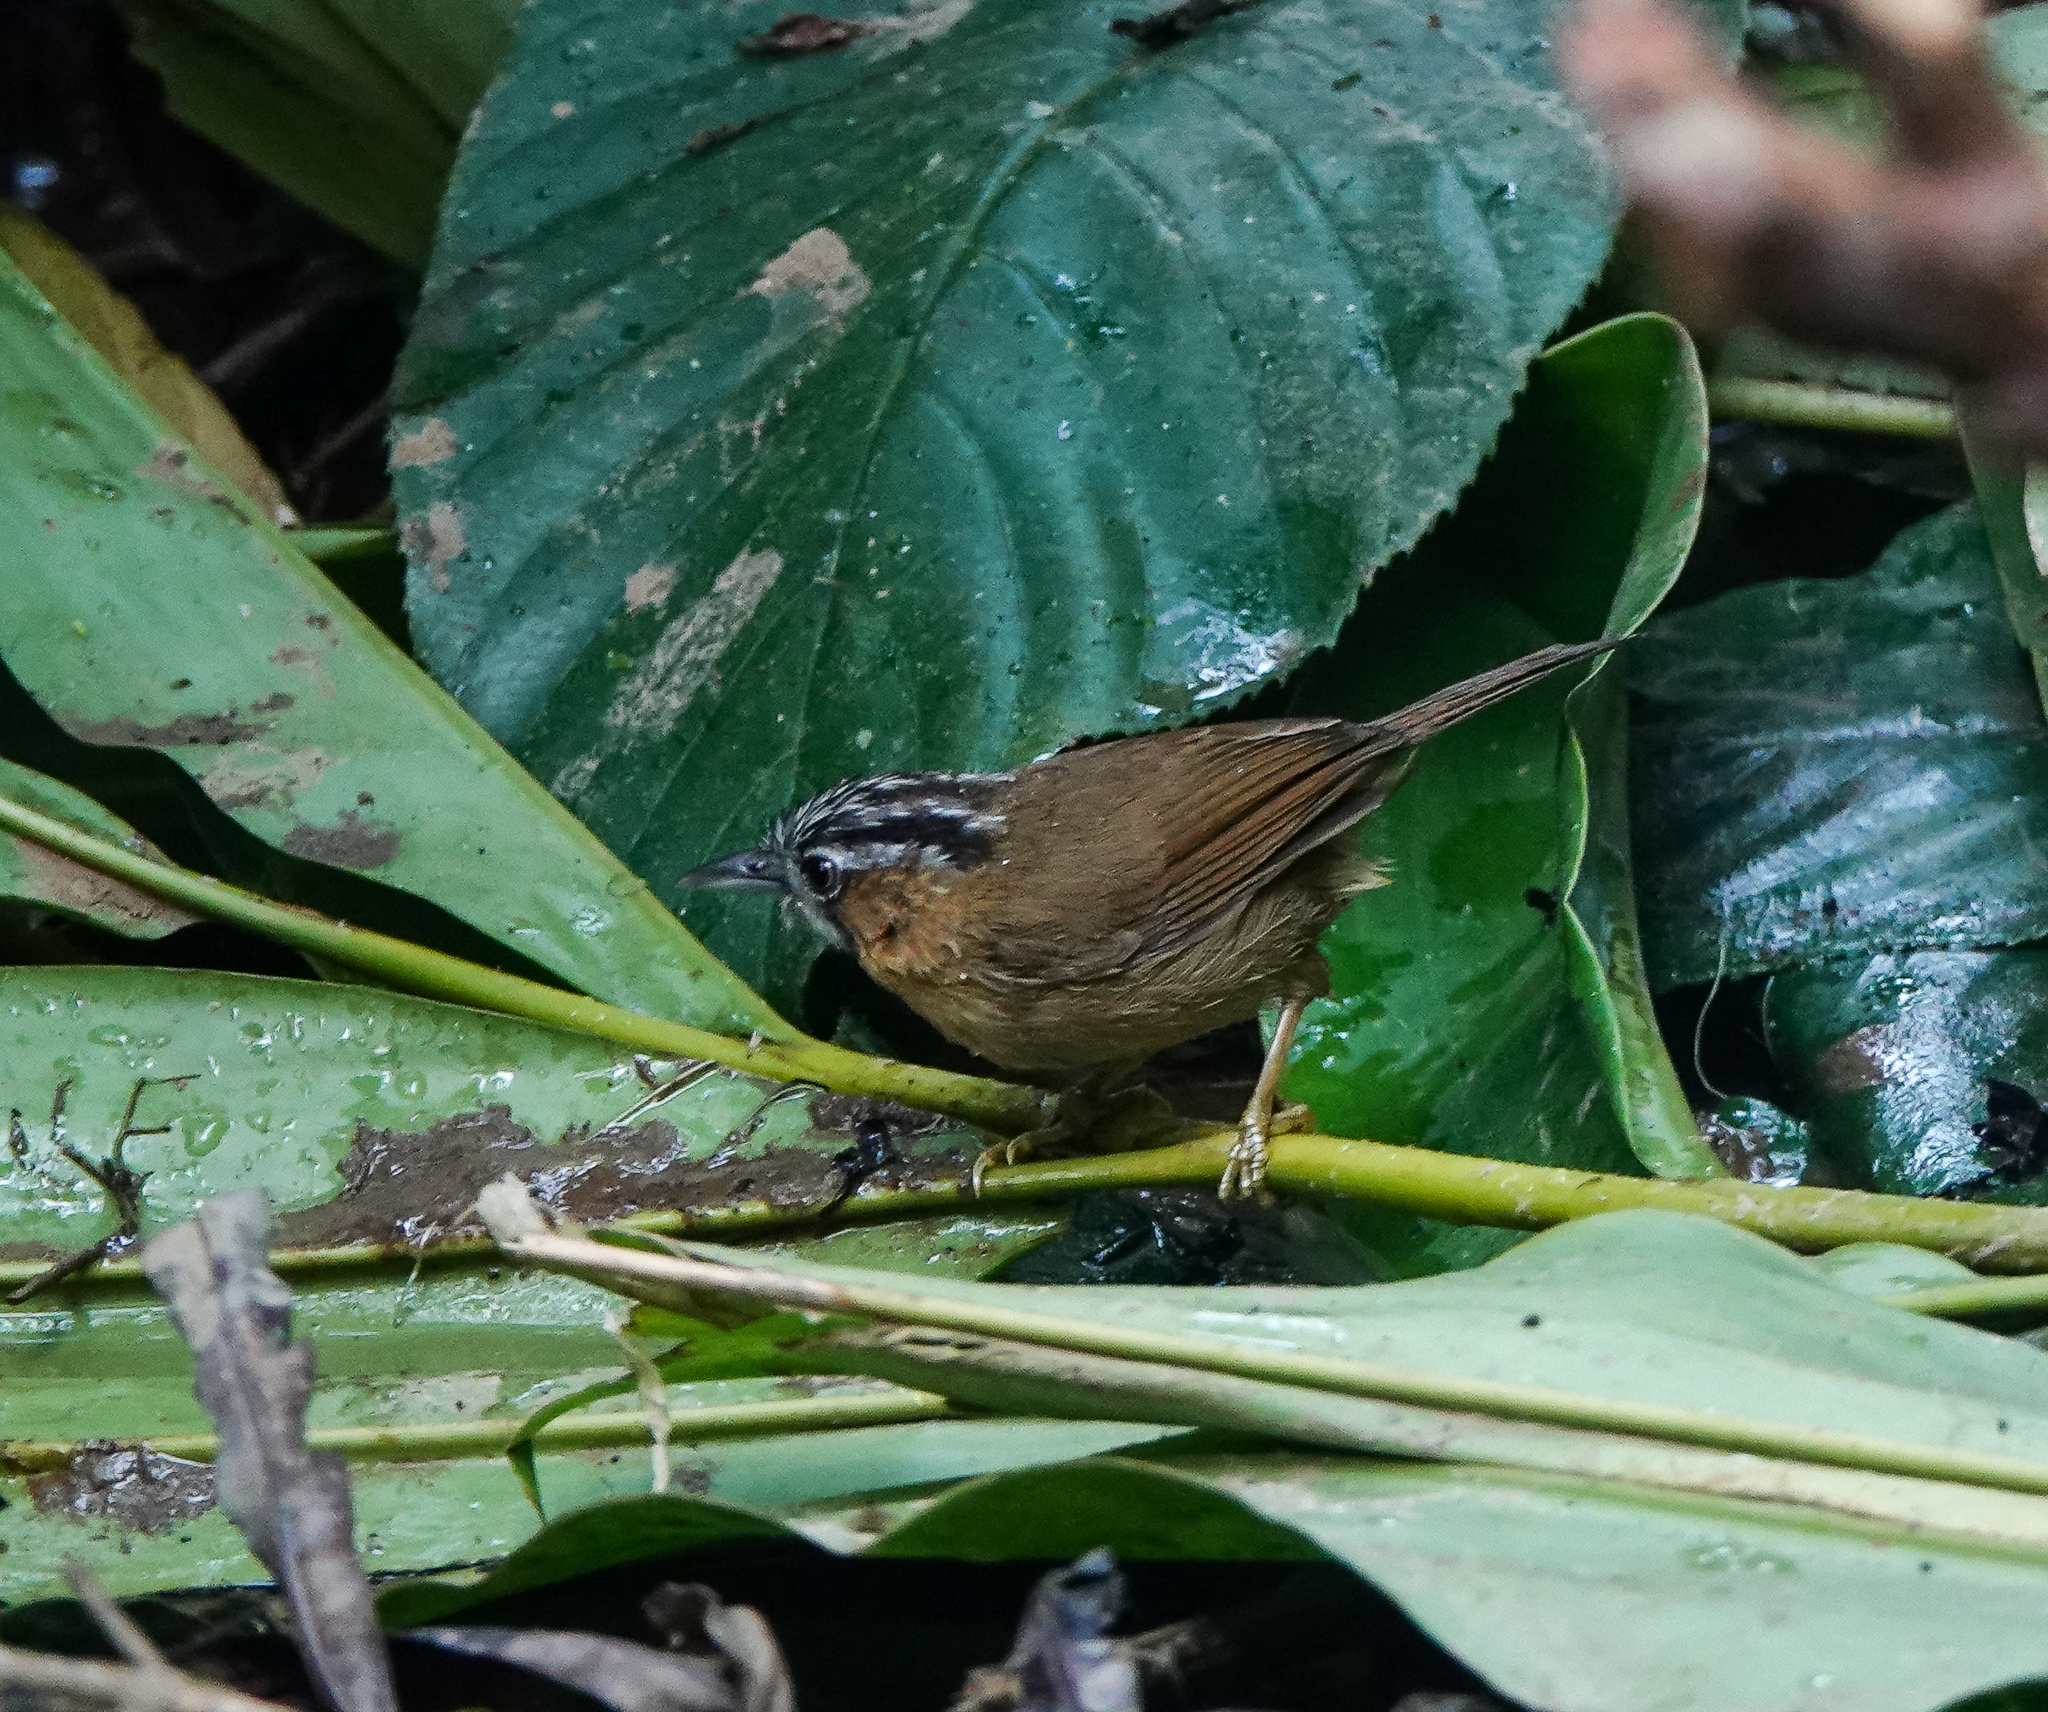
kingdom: Animalia
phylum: Chordata
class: Aves
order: Passeriformes
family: Timaliidae
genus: Stachyris
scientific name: Stachyris nigriceps
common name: Grey-throated babbler
